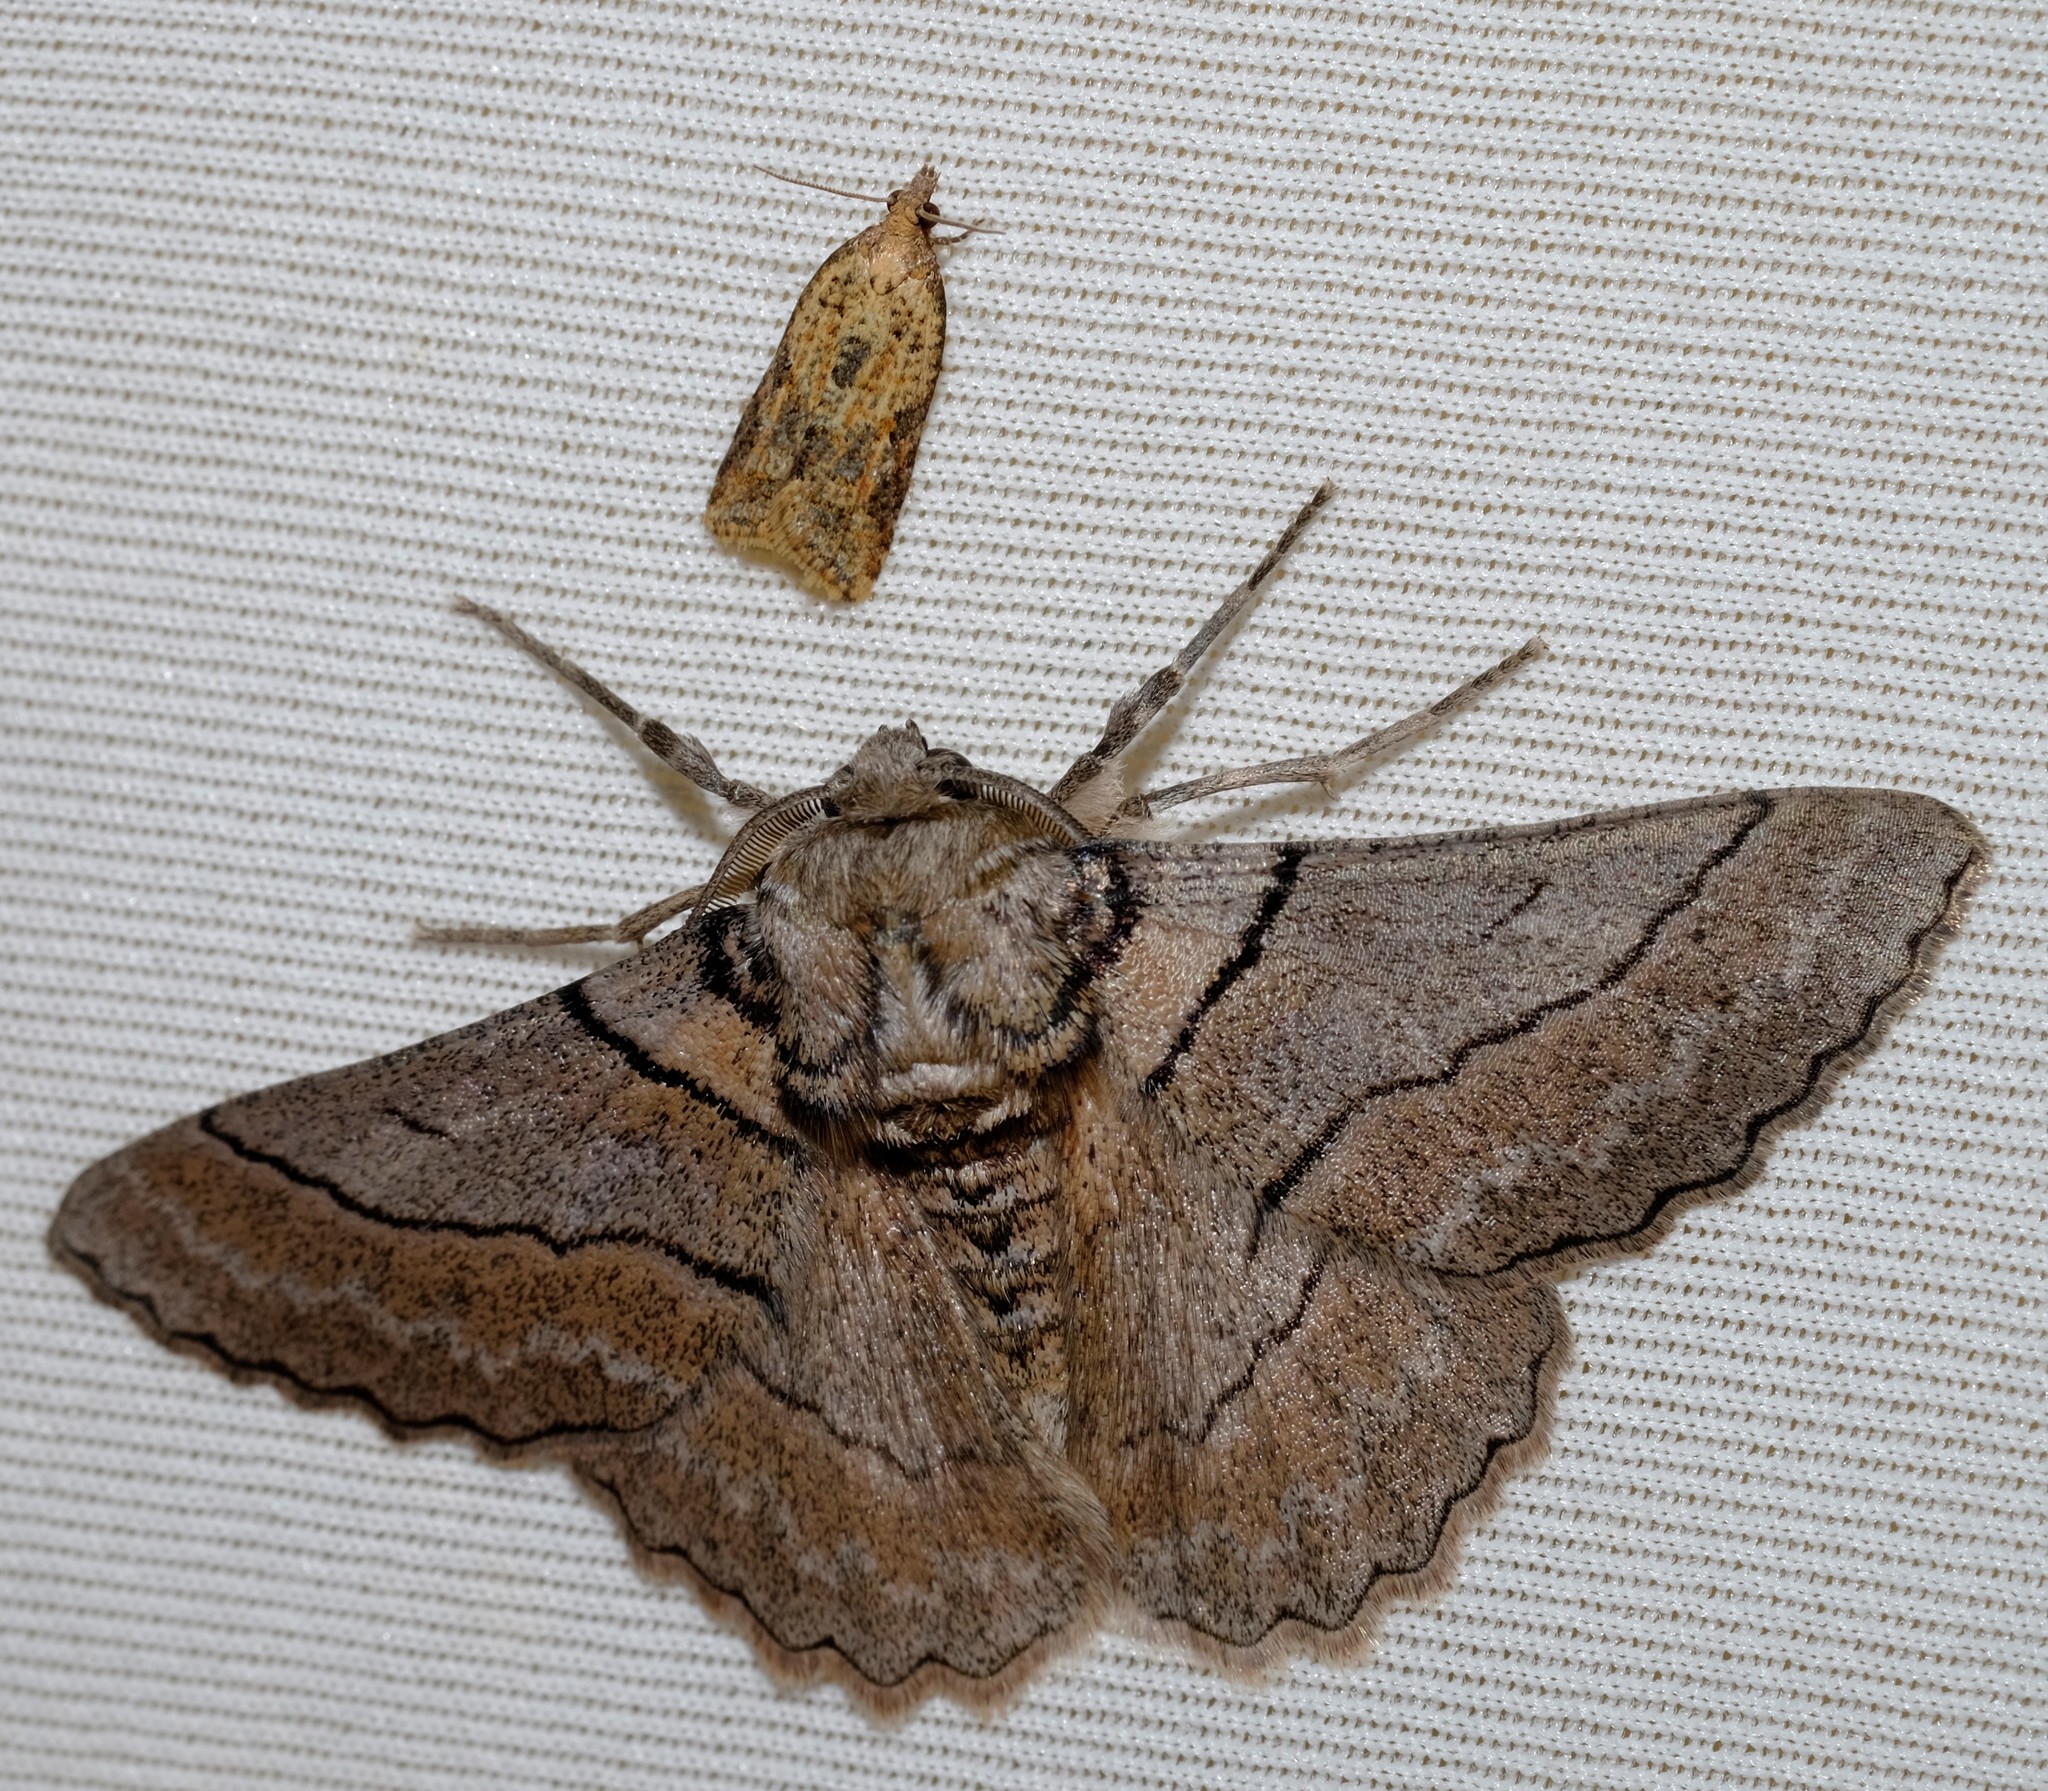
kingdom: Animalia
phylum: Arthropoda
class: Insecta
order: Lepidoptera
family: Geometridae
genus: Hypobapta
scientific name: Hypobapta tachyhalotaria
